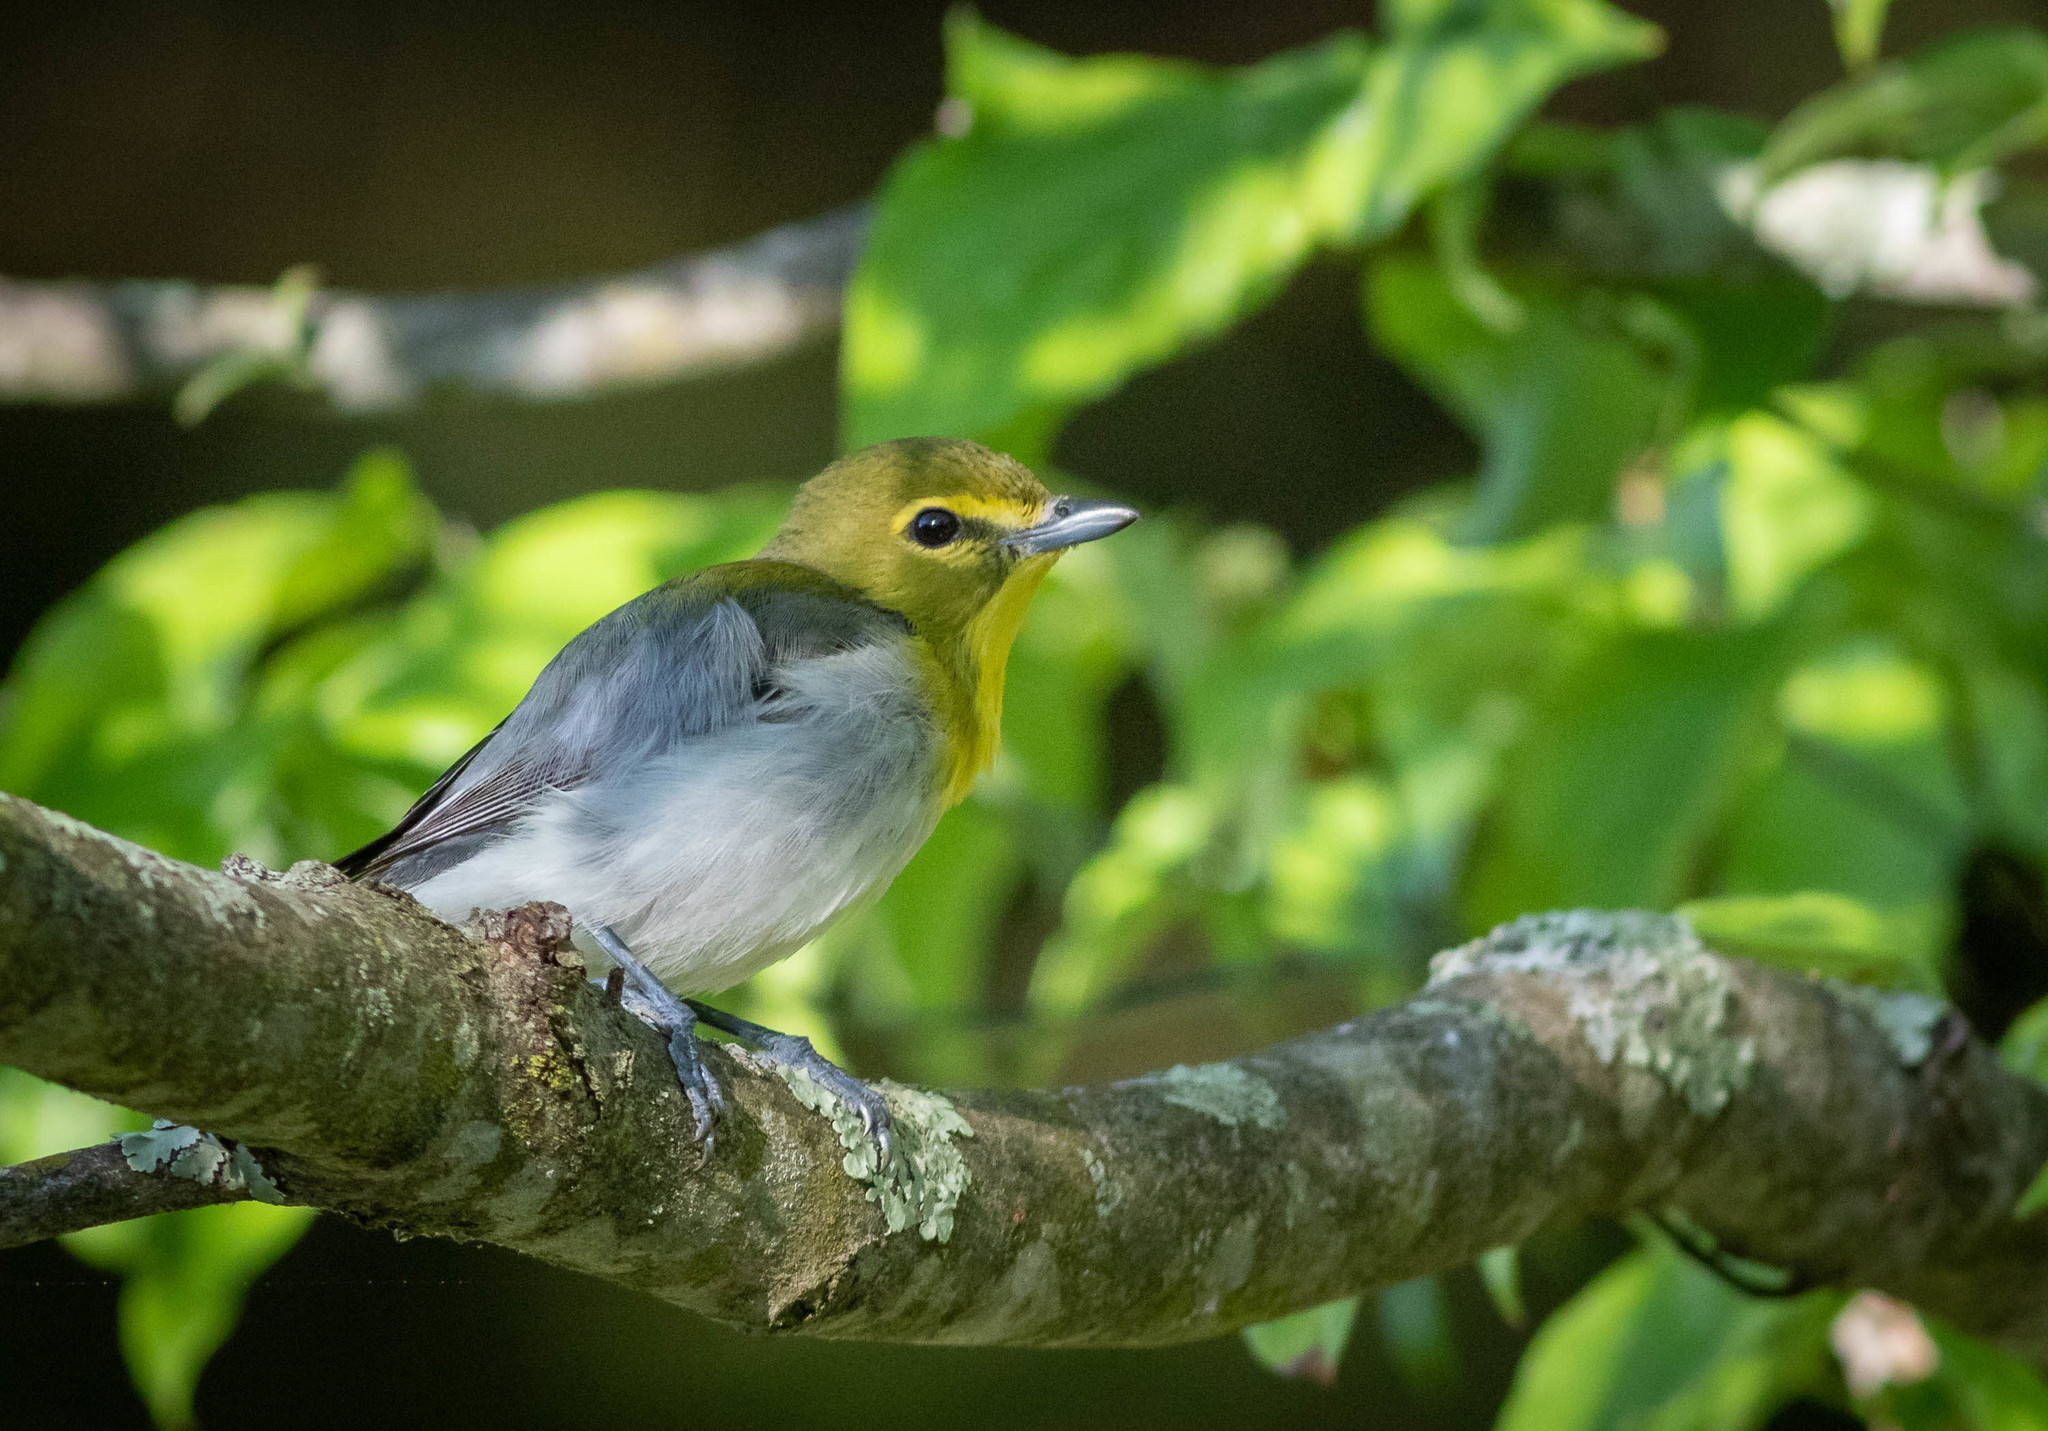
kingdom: Animalia
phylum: Chordata
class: Aves
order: Passeriformes
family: Vireonidae
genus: Vireo
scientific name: Vireo flavifrons
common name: Yellow-throated vireo
